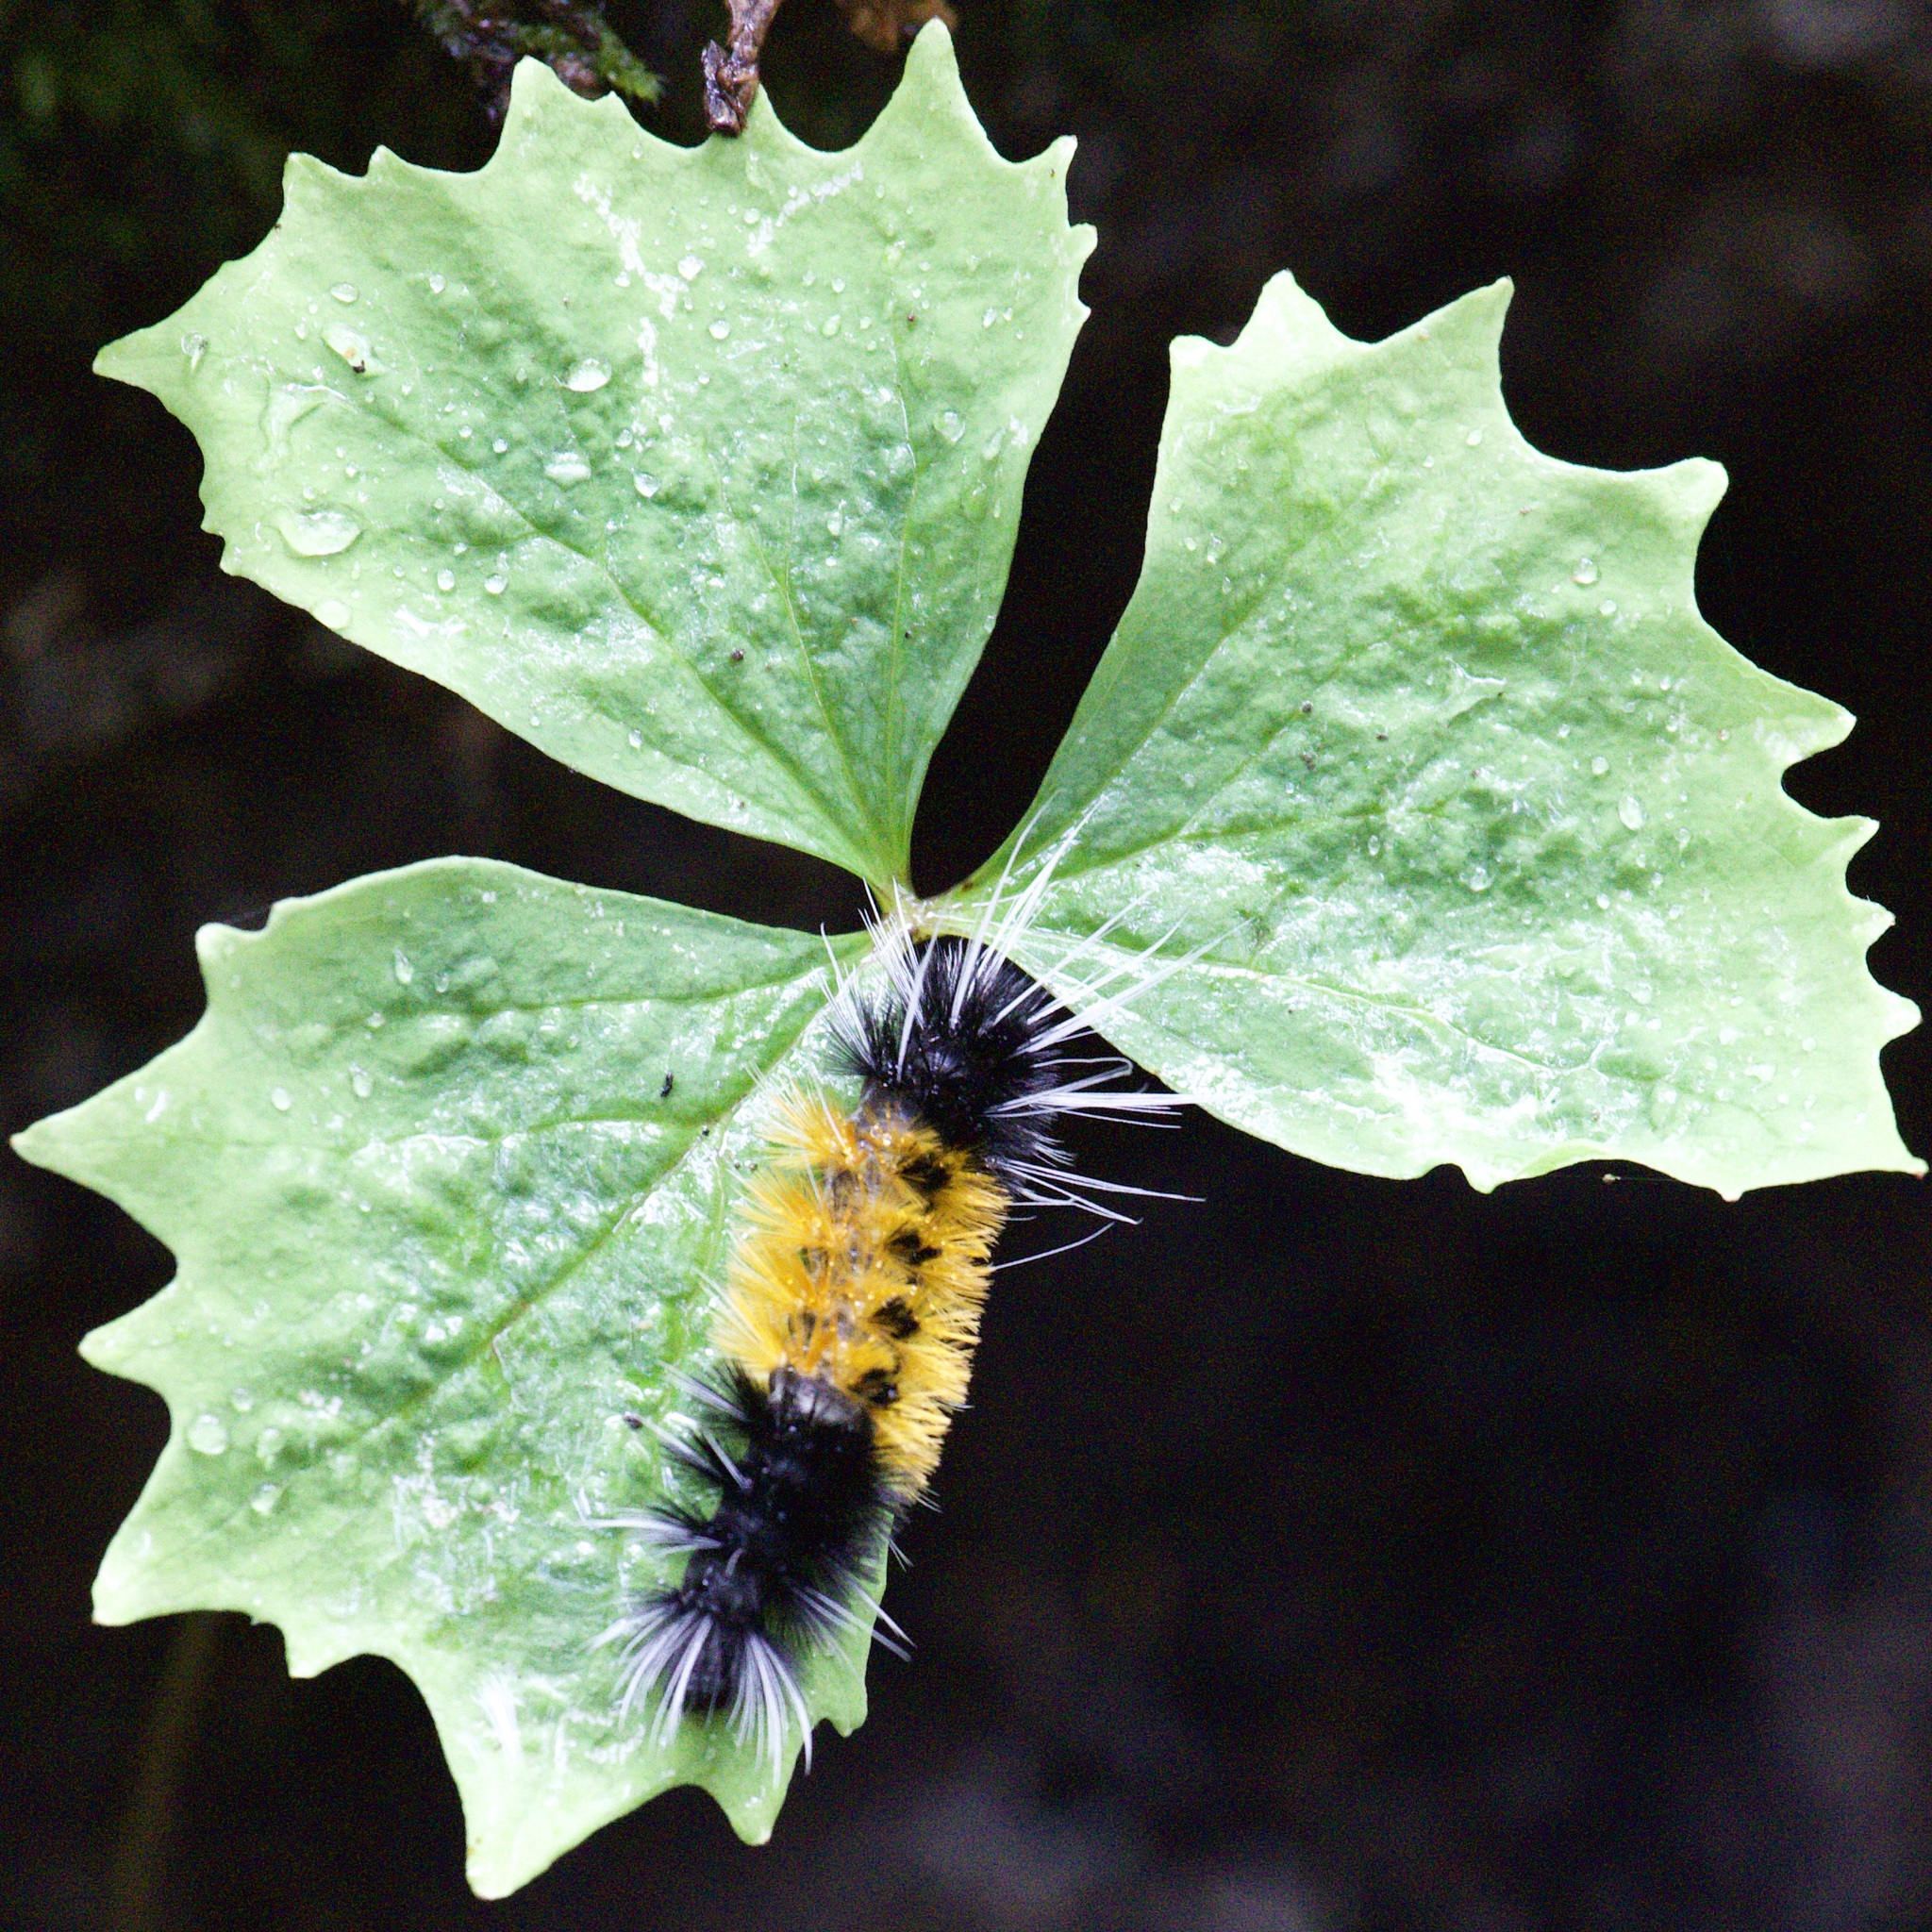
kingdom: Animalia
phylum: Arthropoda
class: Insecta
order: Lepidoptera
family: Erebidae
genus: Lophocampa
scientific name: Lophocampa maculata
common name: Spotted tussock moth
